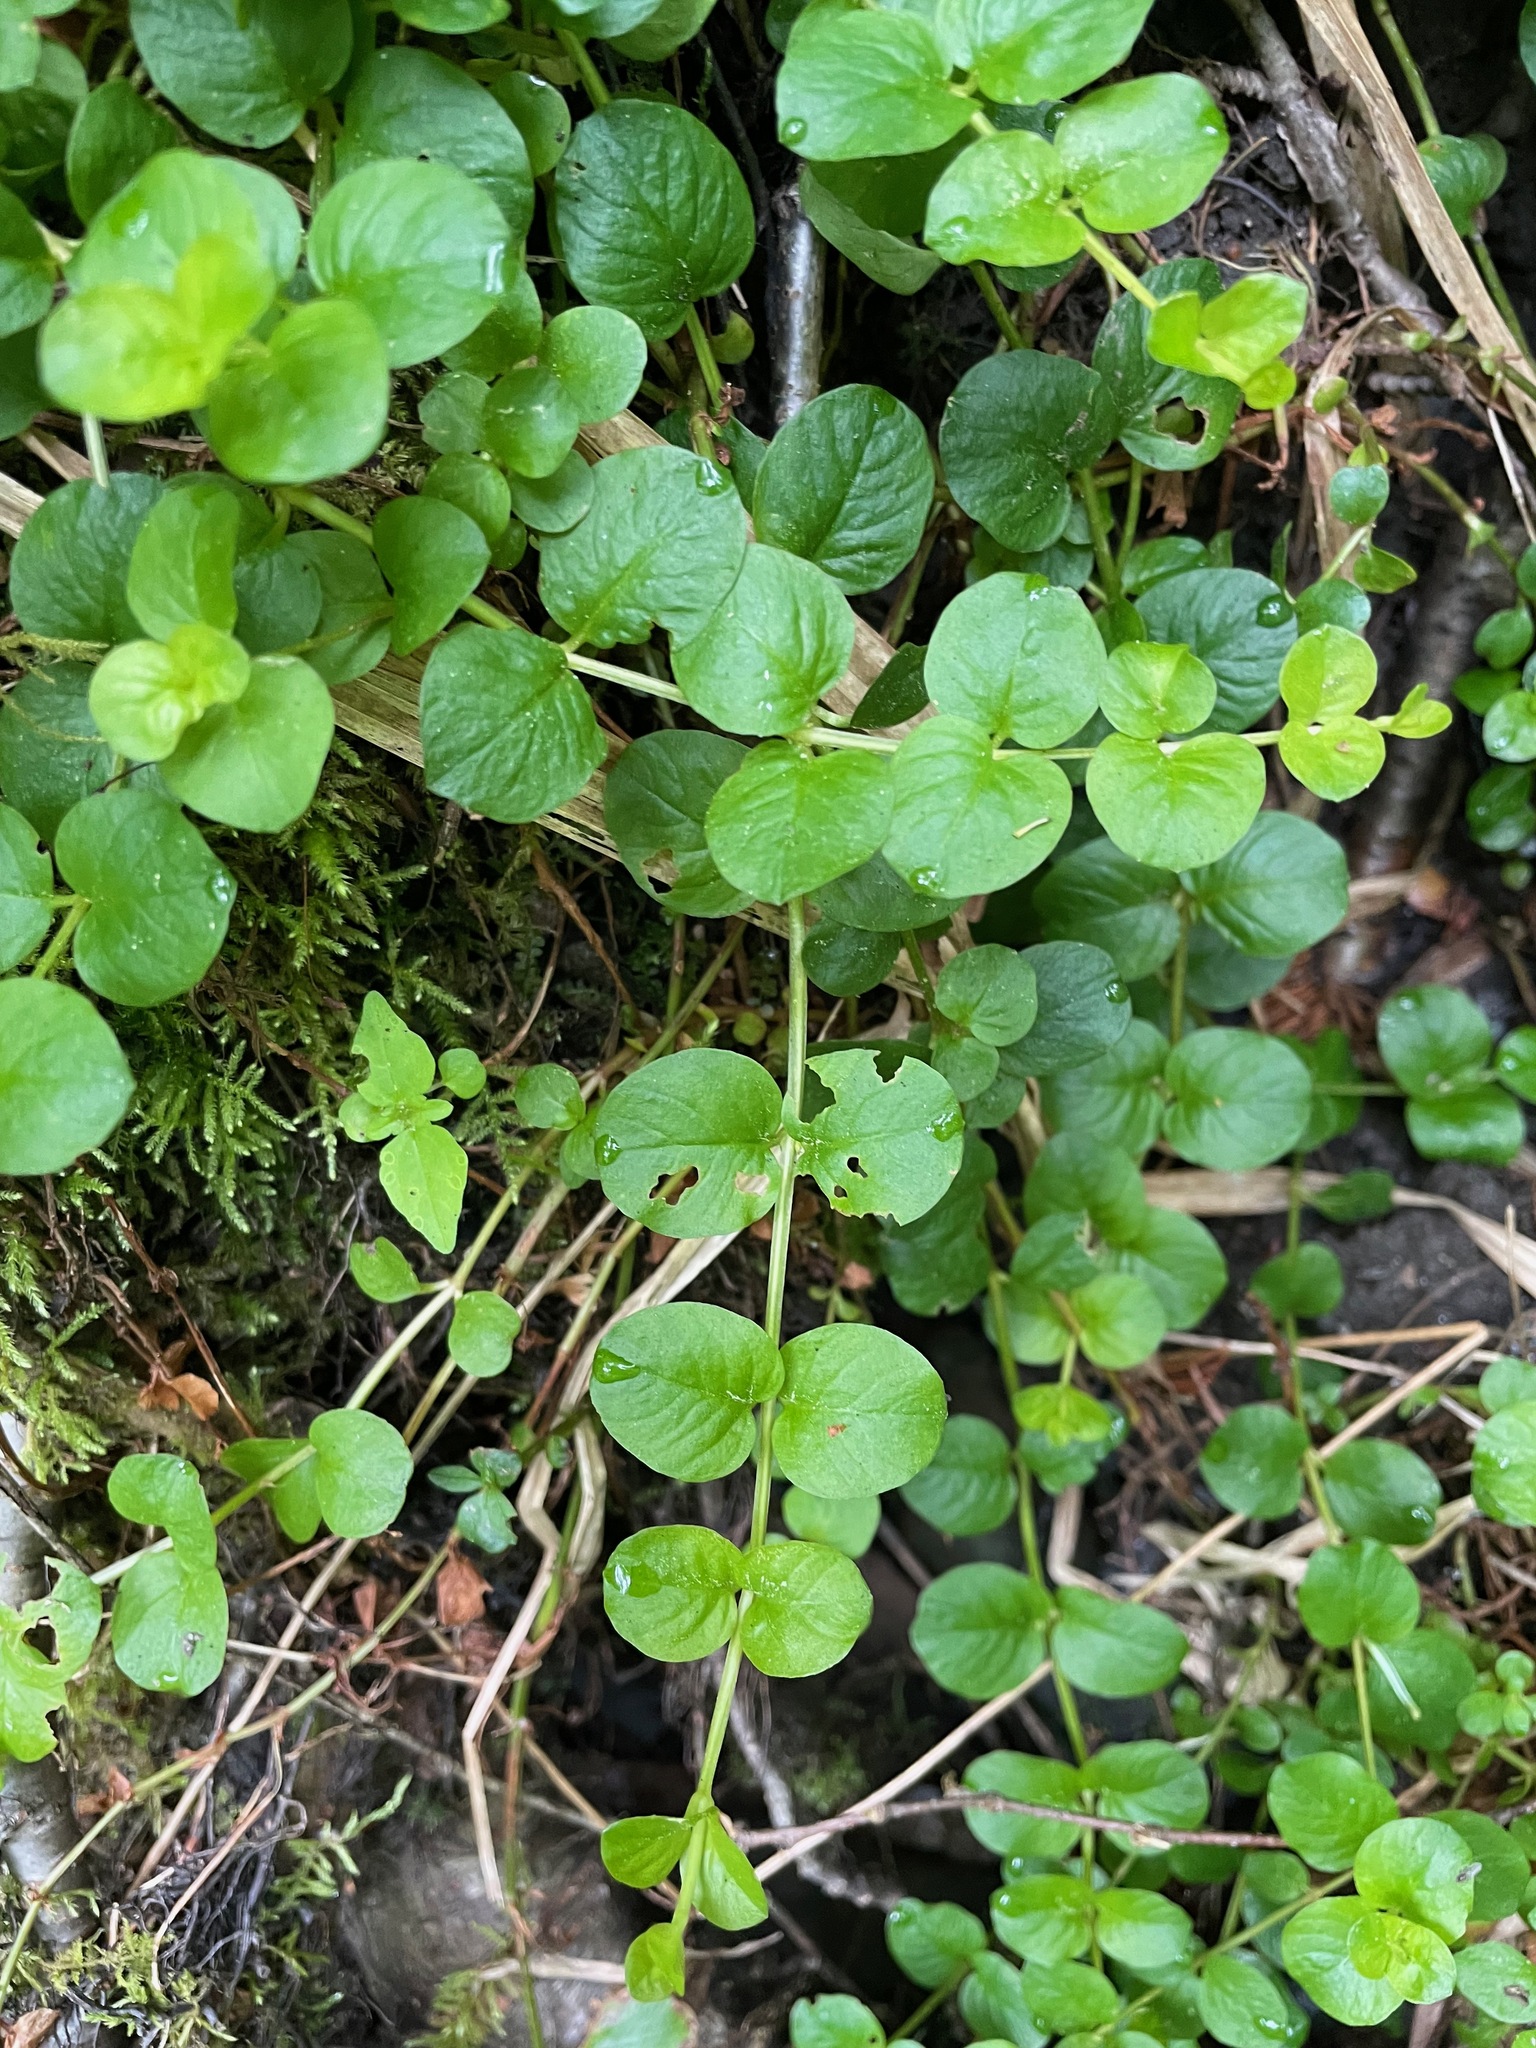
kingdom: Plantae
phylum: Tracheophyta
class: Magnoliopsida
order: Ericales
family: Primulaceae
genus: Lysimachia
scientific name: Lysimachia nummularia
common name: Moneywort
